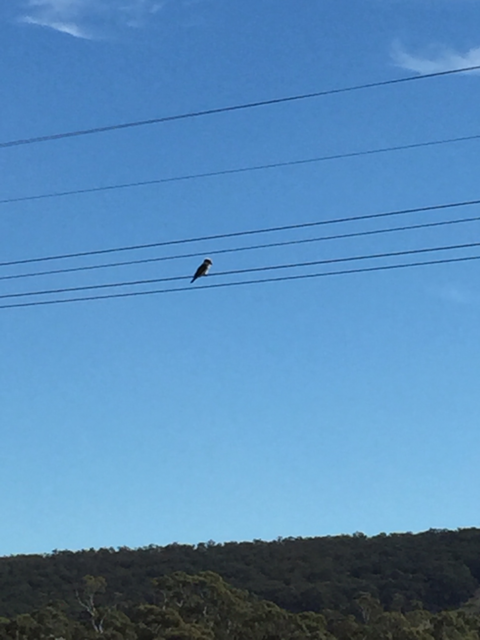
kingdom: Animalia
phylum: Chordata
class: Aves
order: Coraciiformes
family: Alcedinidae
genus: Dacelo
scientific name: Dacelo novaeguineae
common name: Laughing kookaburra
